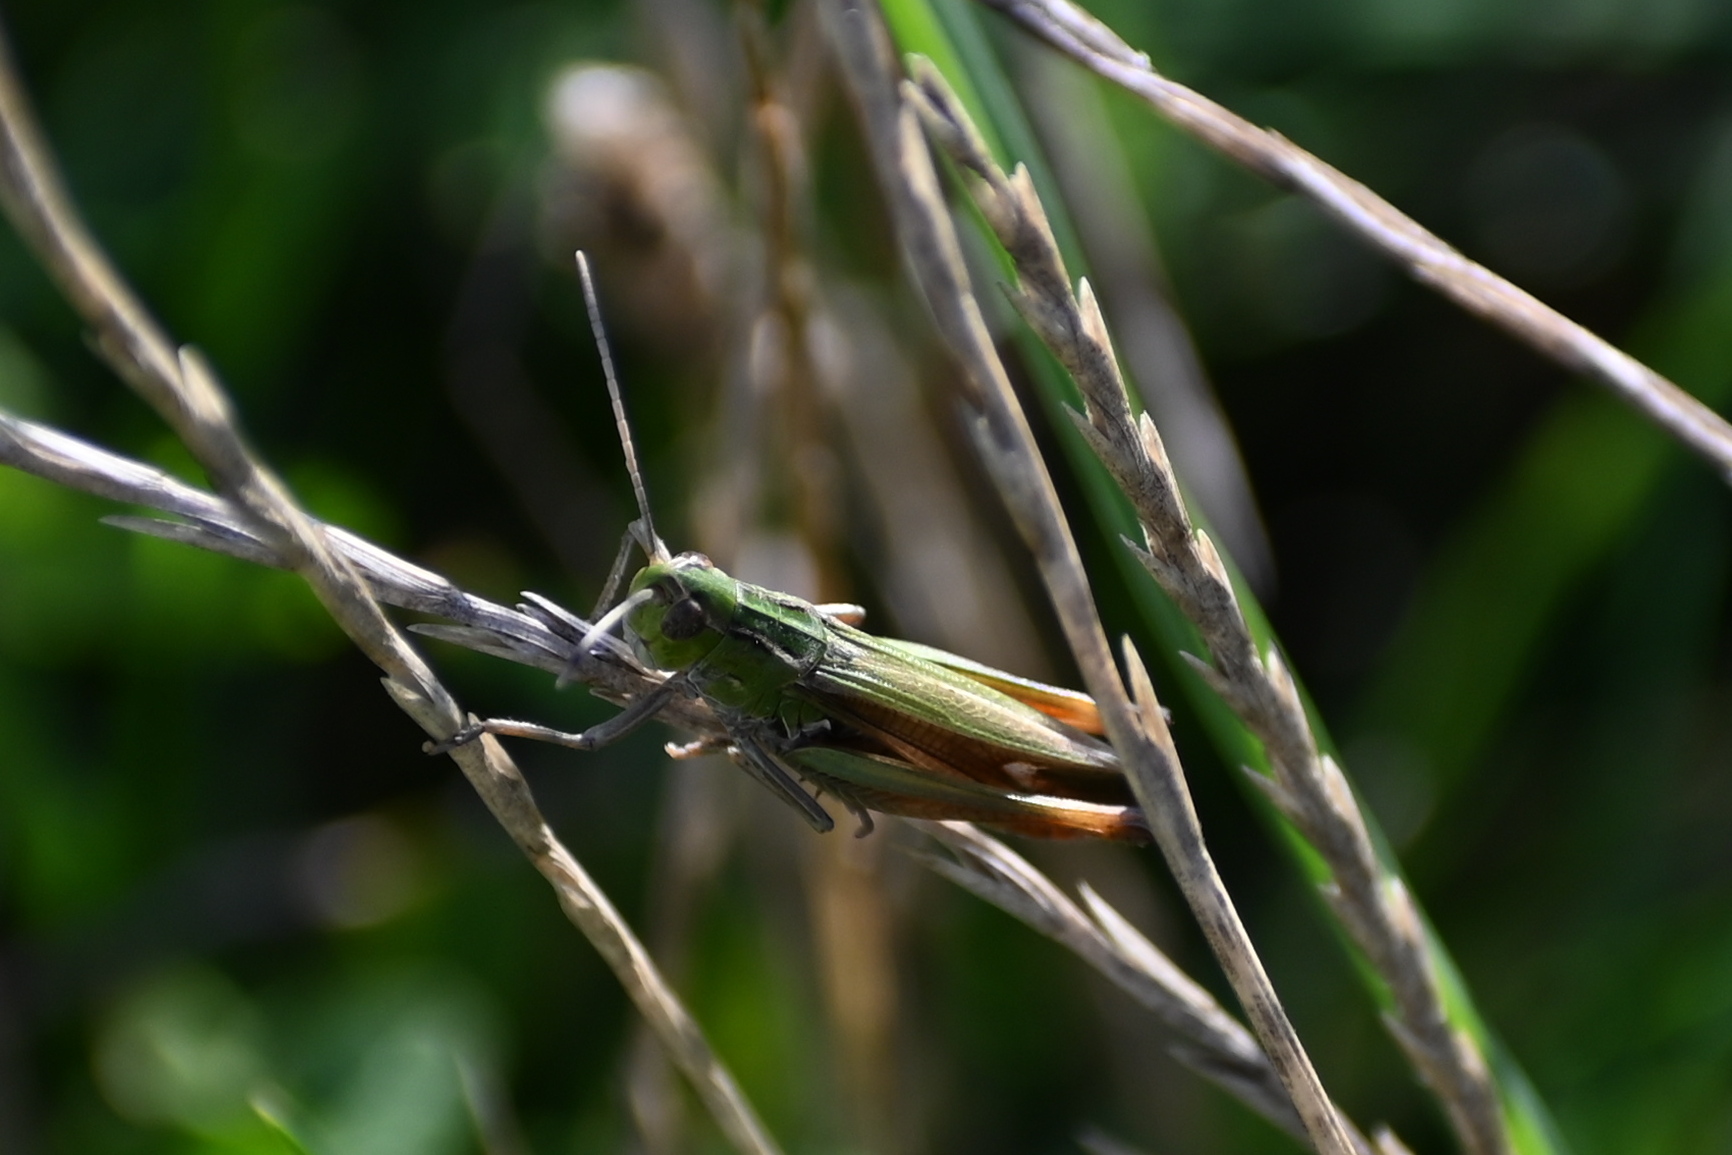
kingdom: Animalia
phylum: Arthropoda
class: Insecta
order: Orthoptera
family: Acrididae
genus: Stenobothrus
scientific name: Stenobothrus lineatus
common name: Stripe-winged grasshopper
